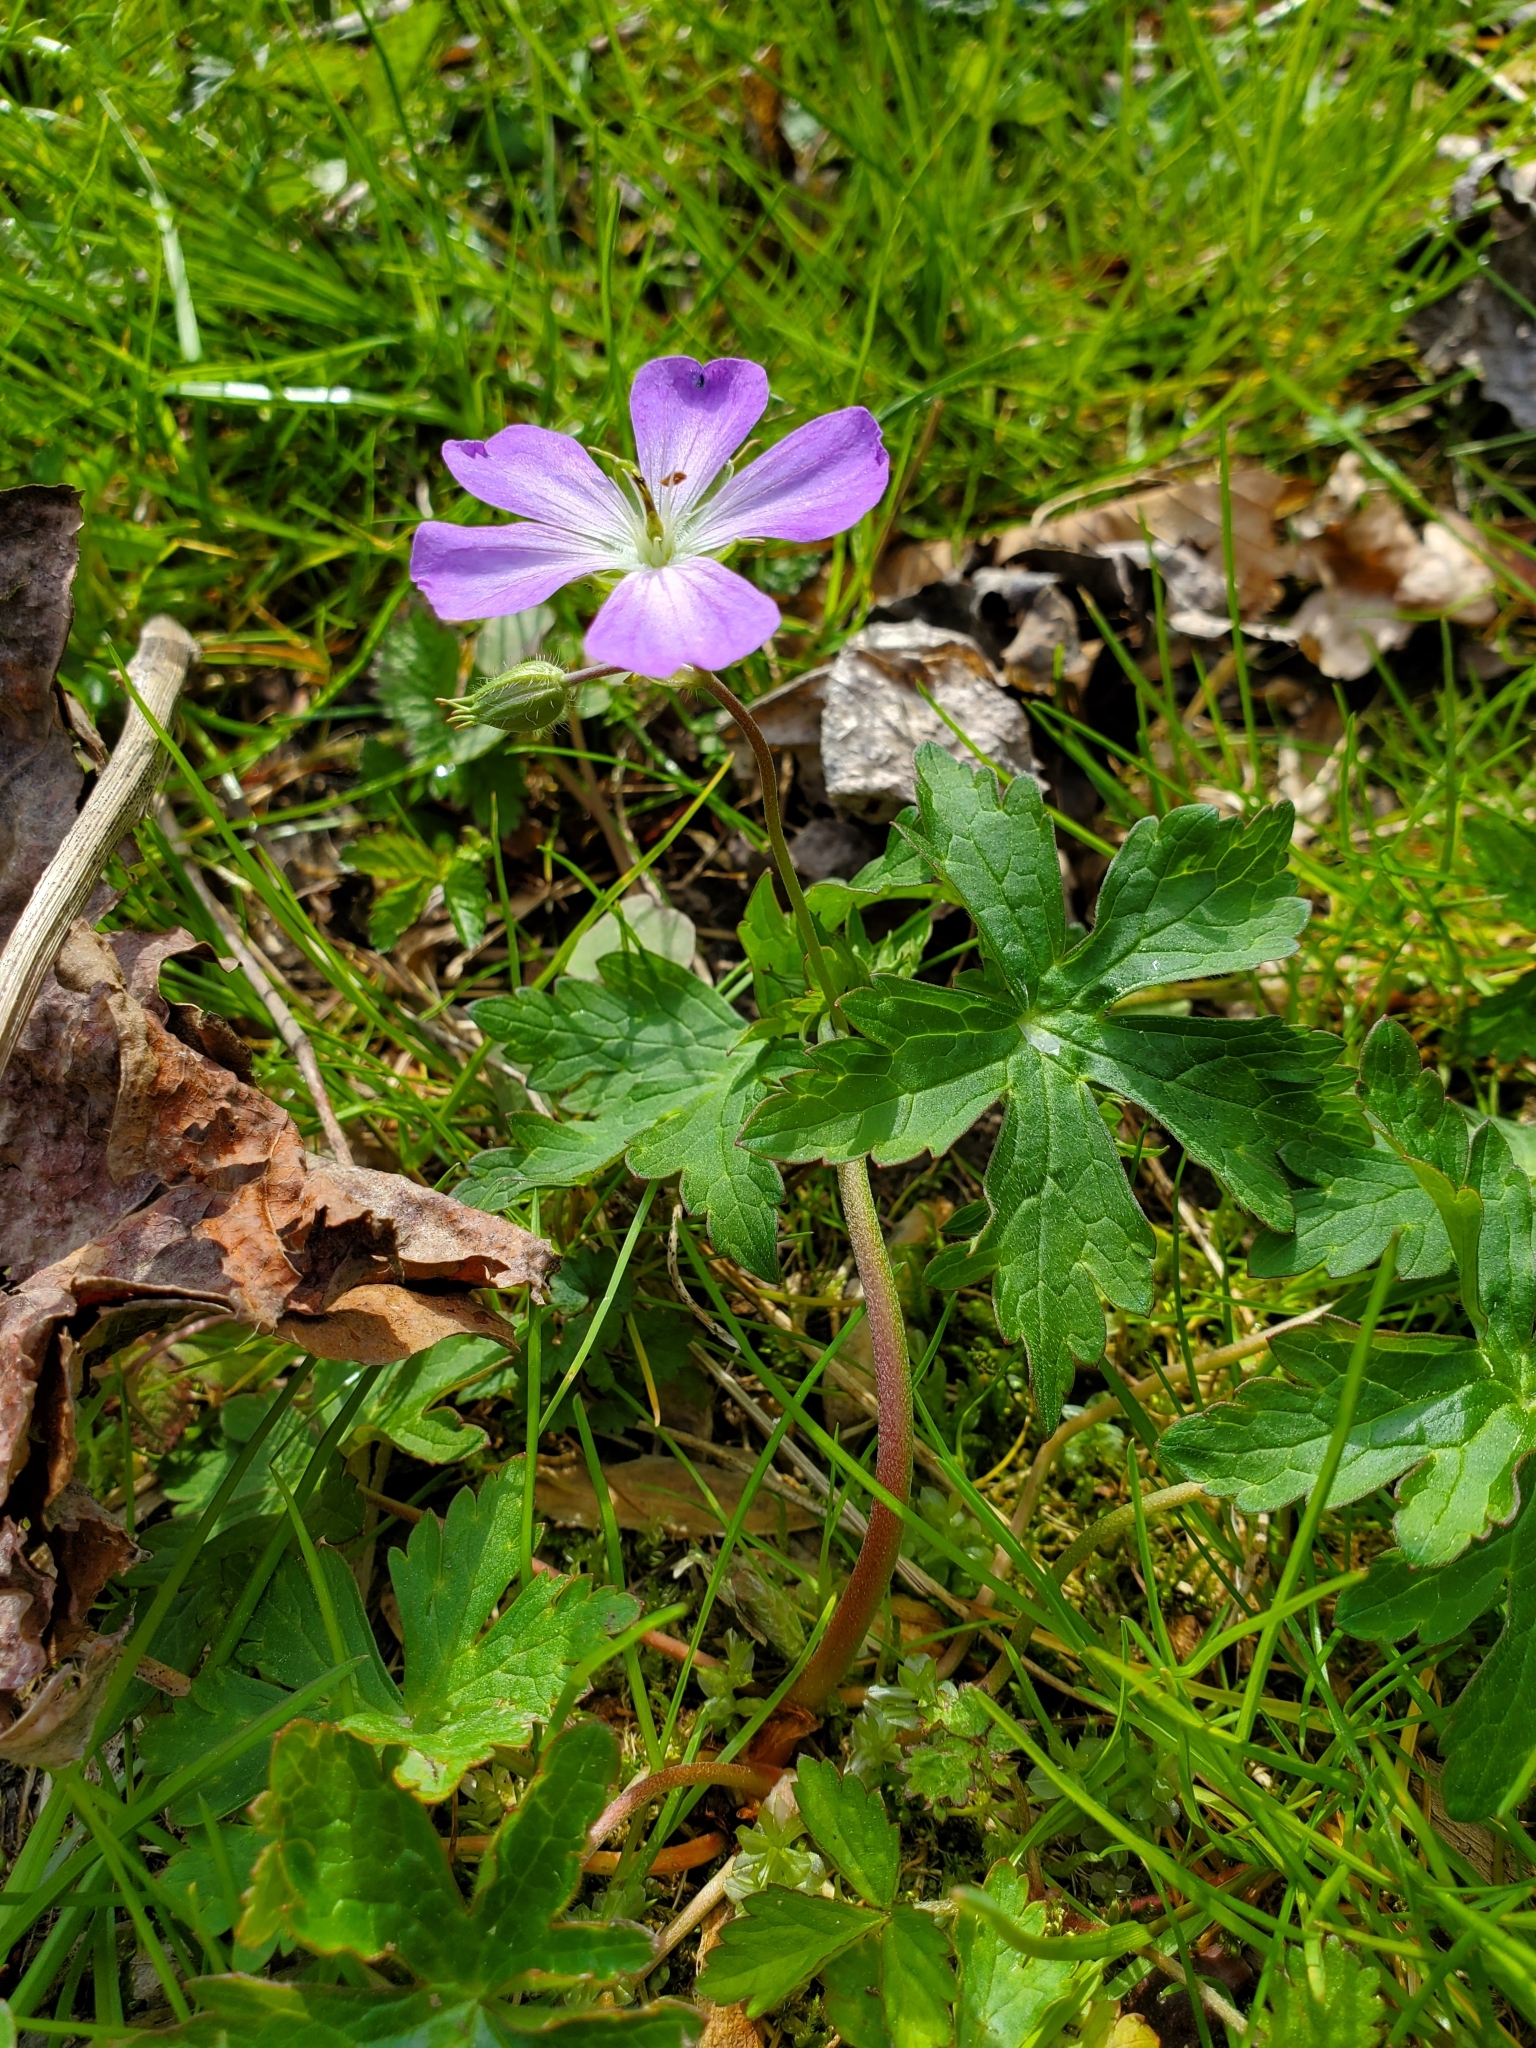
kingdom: Plantae
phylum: Tracheophyta
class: Magnoliopsida
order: Geraniales
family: Geraniaceae
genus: Geranium
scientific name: Geranium maculatum
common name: Spotted geranium
